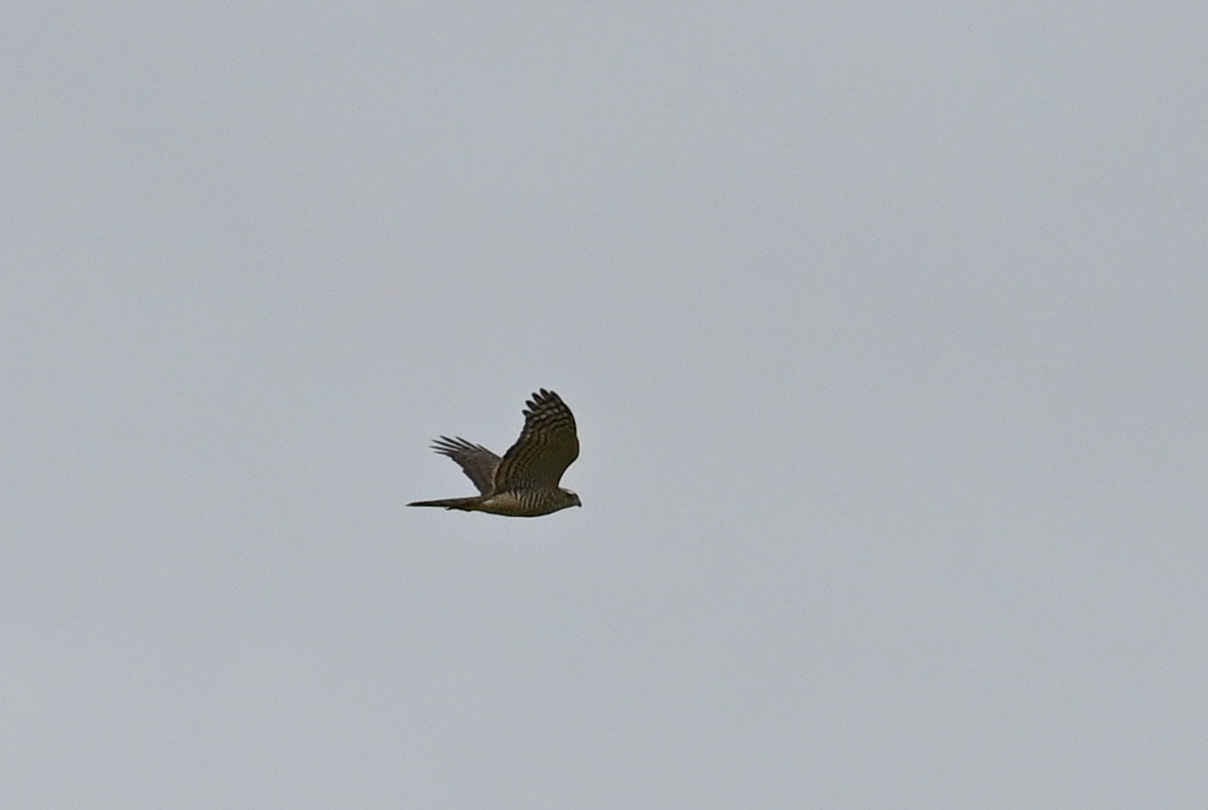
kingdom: Animalia
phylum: Chordata
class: Aves
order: Accipitriformes
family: Accipitridae
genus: Accipiter
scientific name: Accipiter nisus
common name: Eurasian sparrowhawk
